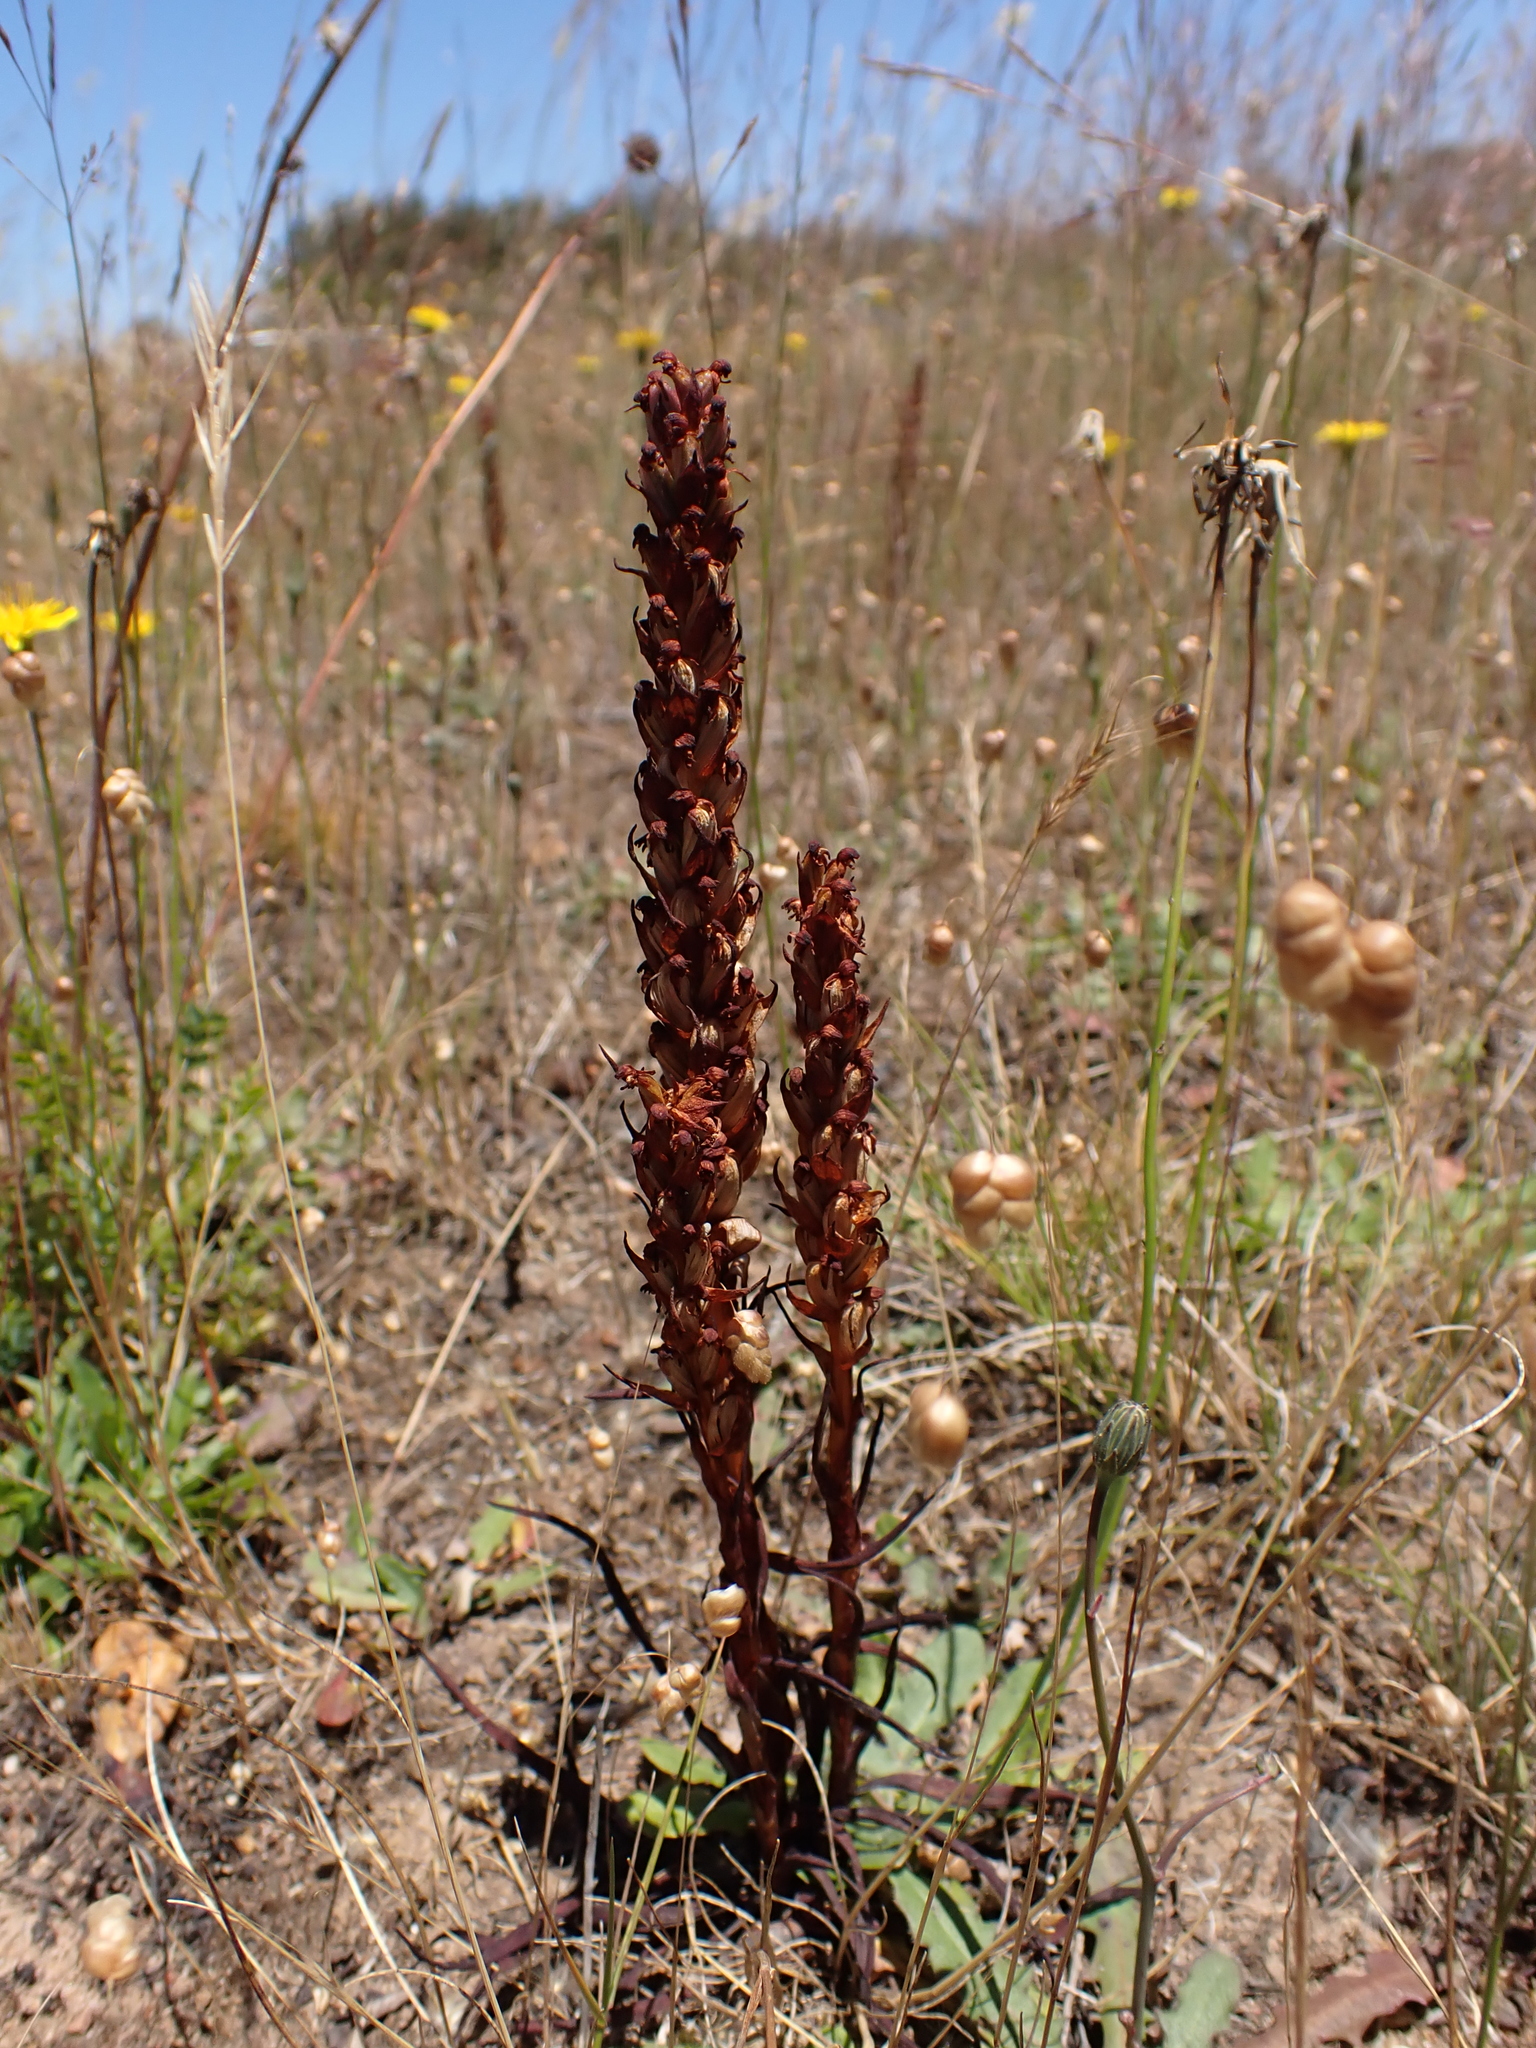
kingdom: Plantae
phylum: Tracheophyta
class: Liliopsida
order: Asparagales
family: Orchidaceae
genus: Disa
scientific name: Disa bracteata
